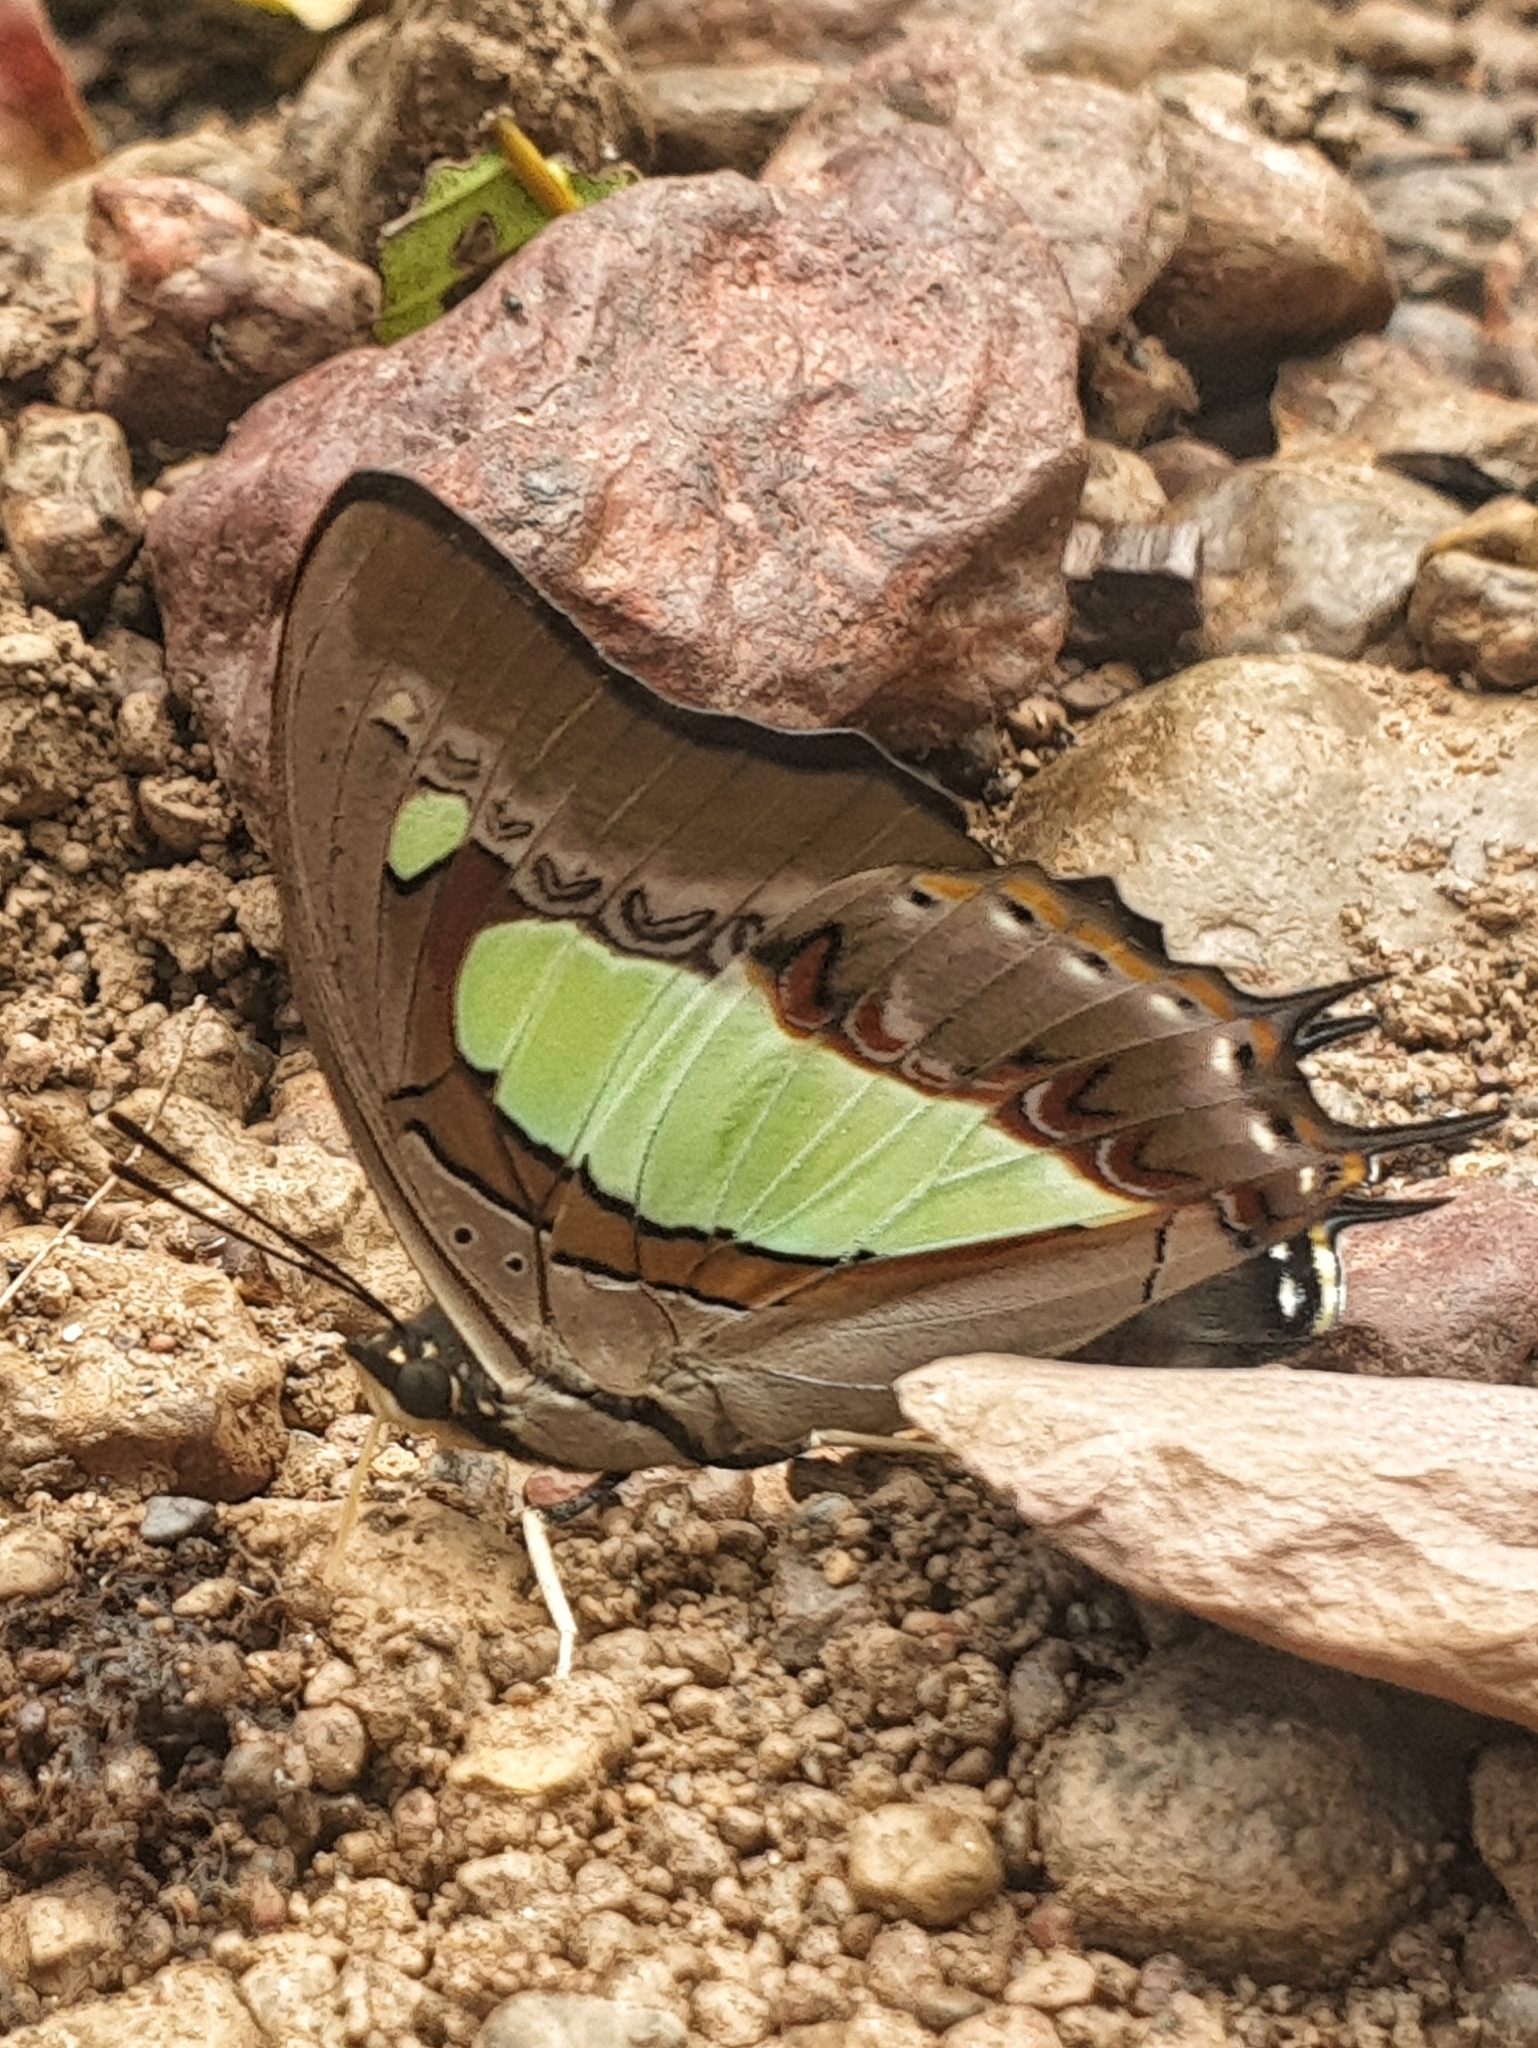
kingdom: Animalia
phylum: Arthropoda
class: Insecta
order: Lepidoptera
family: Nymphalidae
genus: Polyura
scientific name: Polyura
